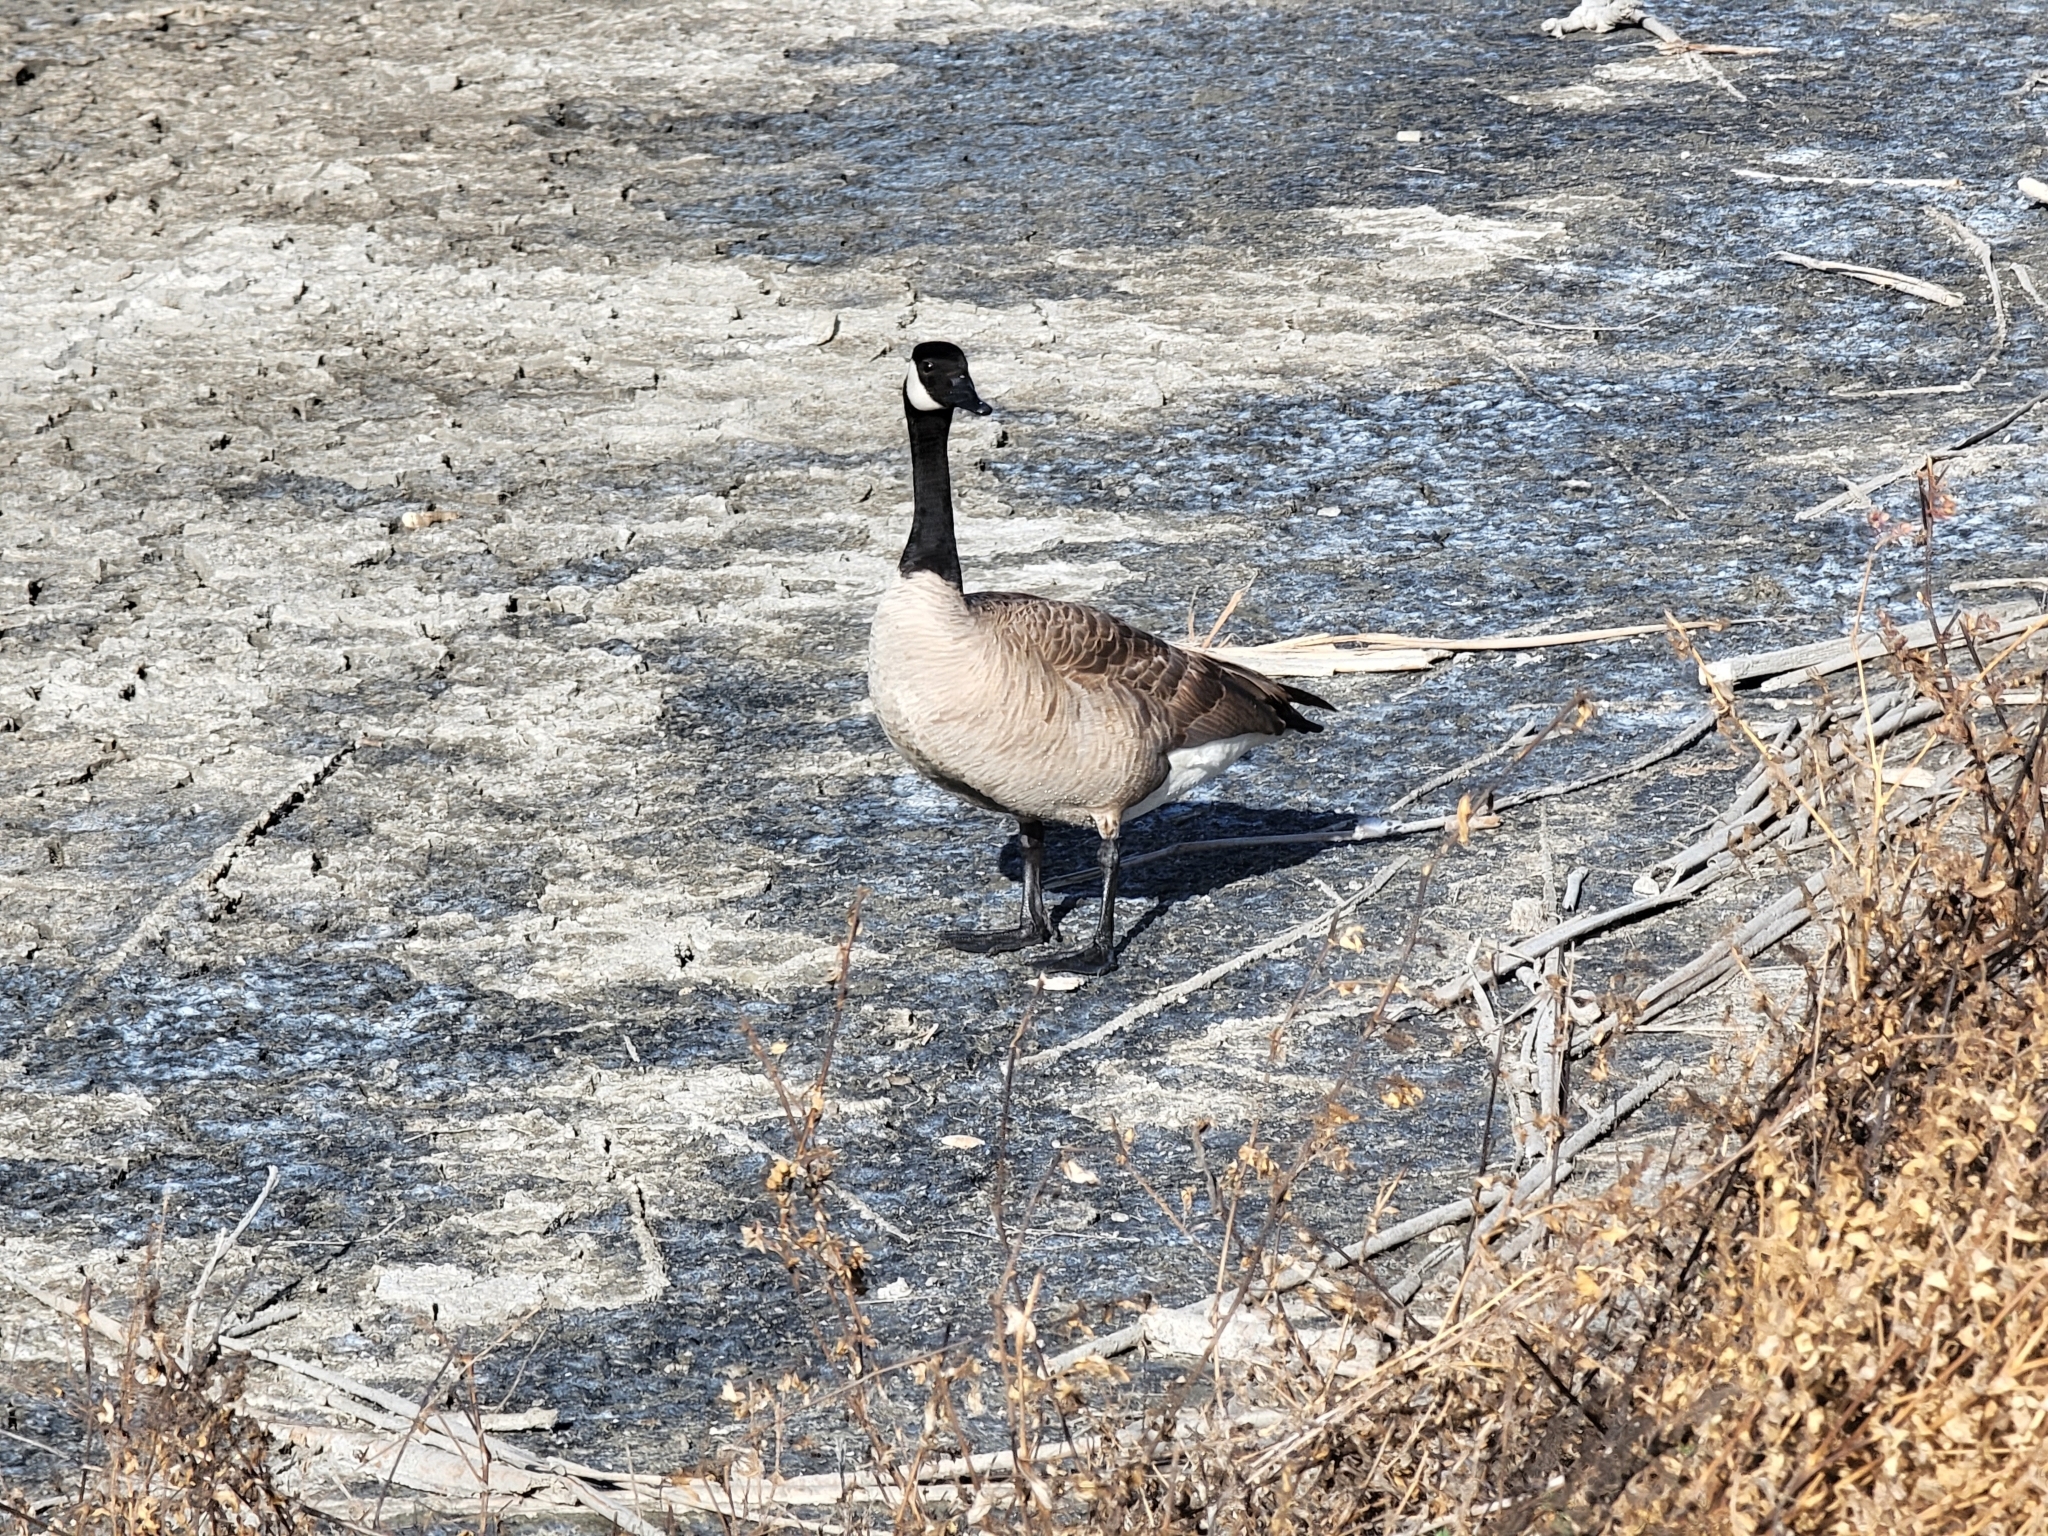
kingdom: Animalia
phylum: Chordata
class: Aves
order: Anseriformes
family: Anatidae
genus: Branta
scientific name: Branta canadensis
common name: Canada goose
